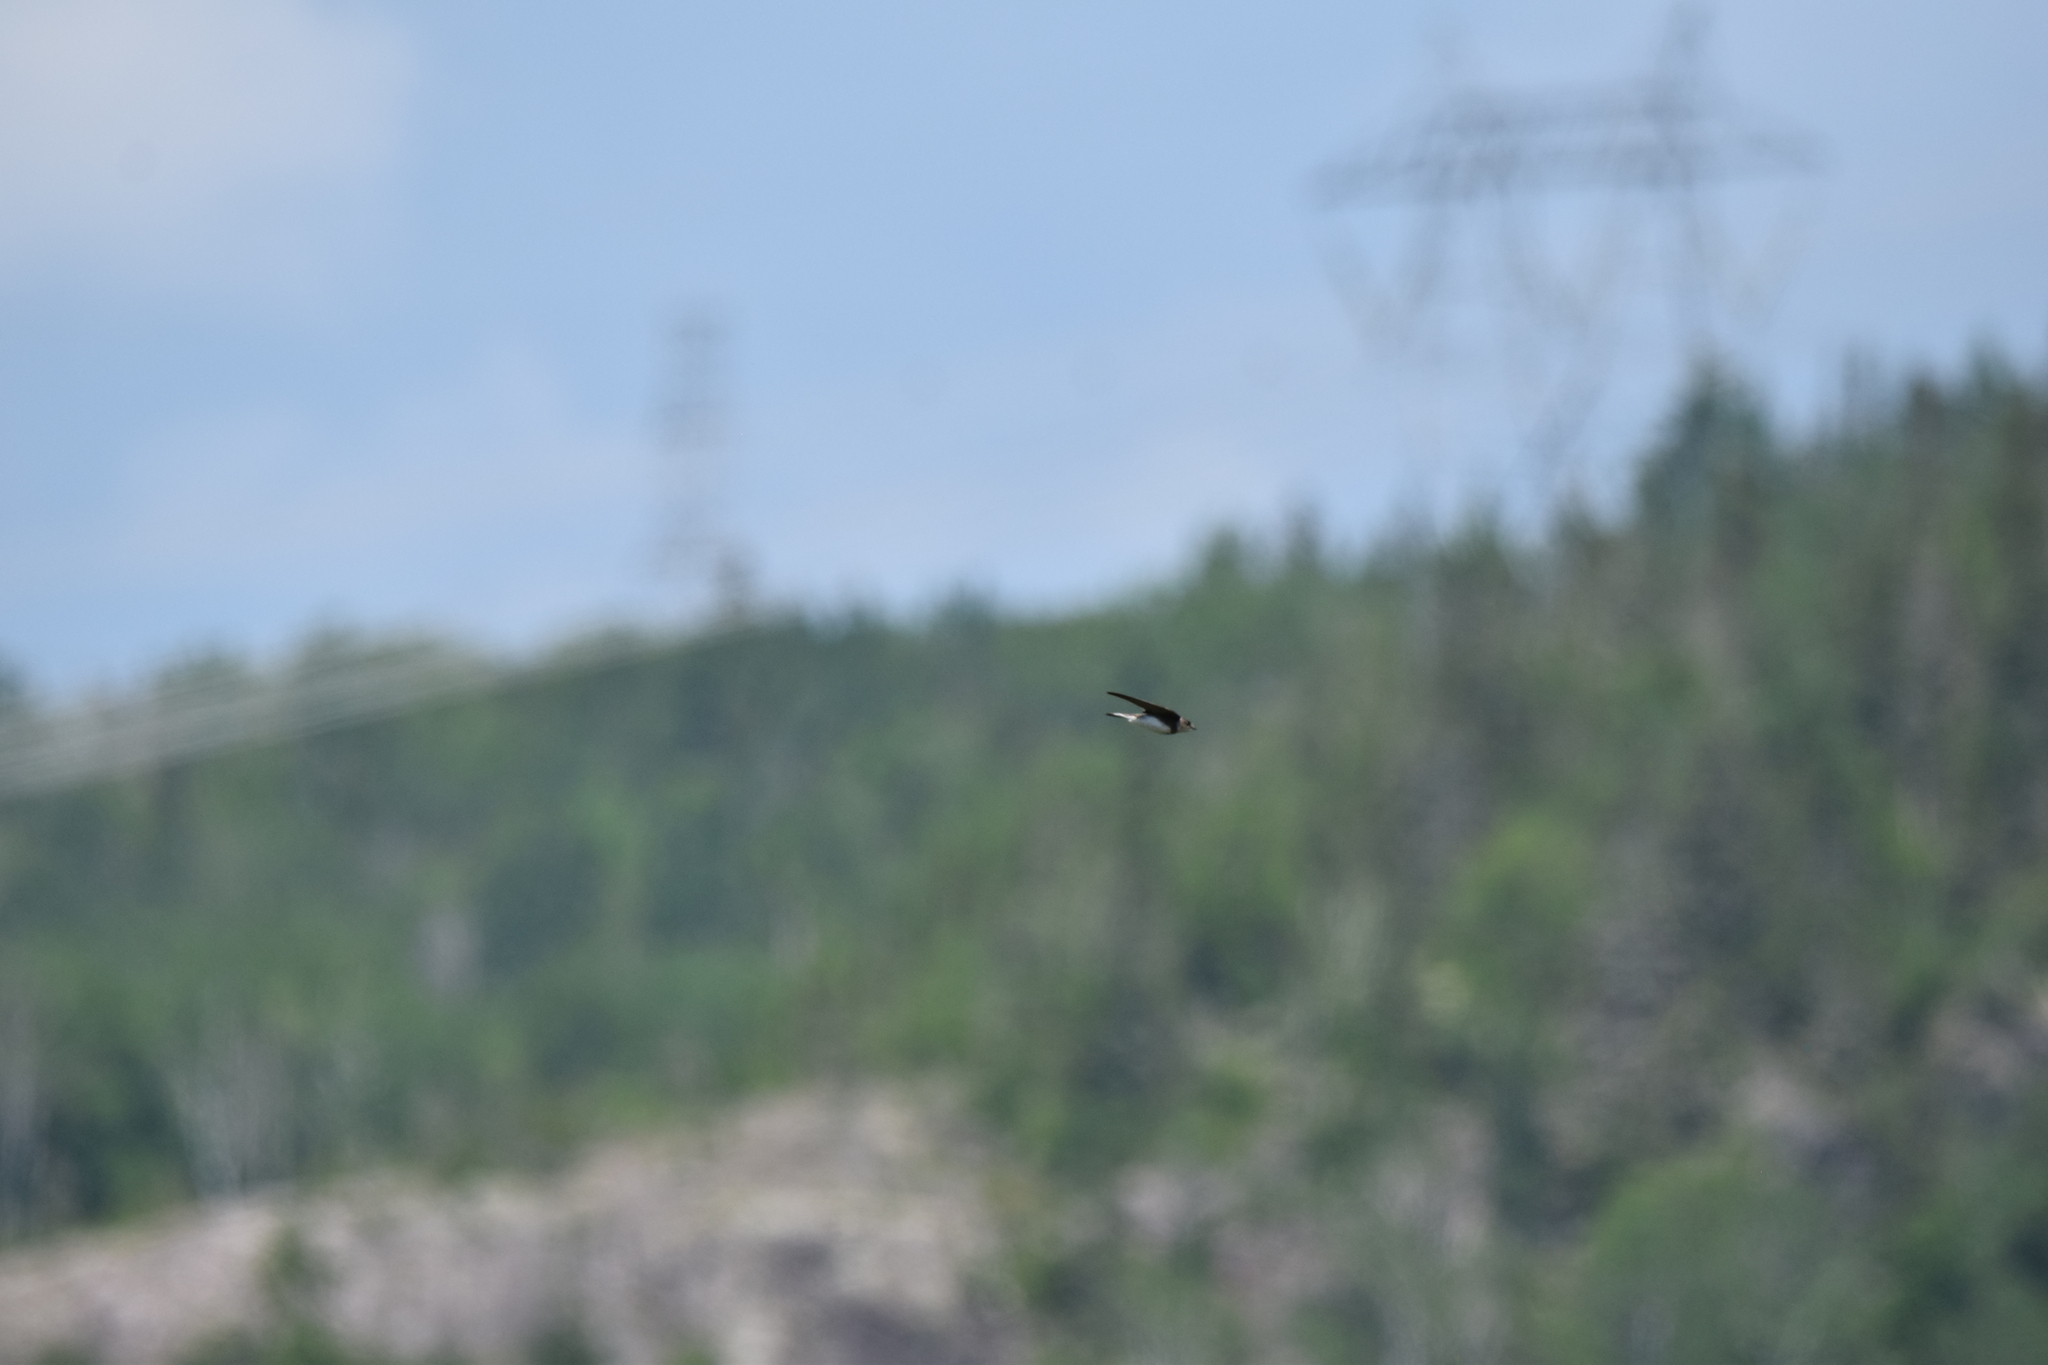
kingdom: Animalia
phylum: Chordata
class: Aves
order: Passeriformes
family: Hirundinidae
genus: Riparia
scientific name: Riparia riparia
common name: Sand martin
